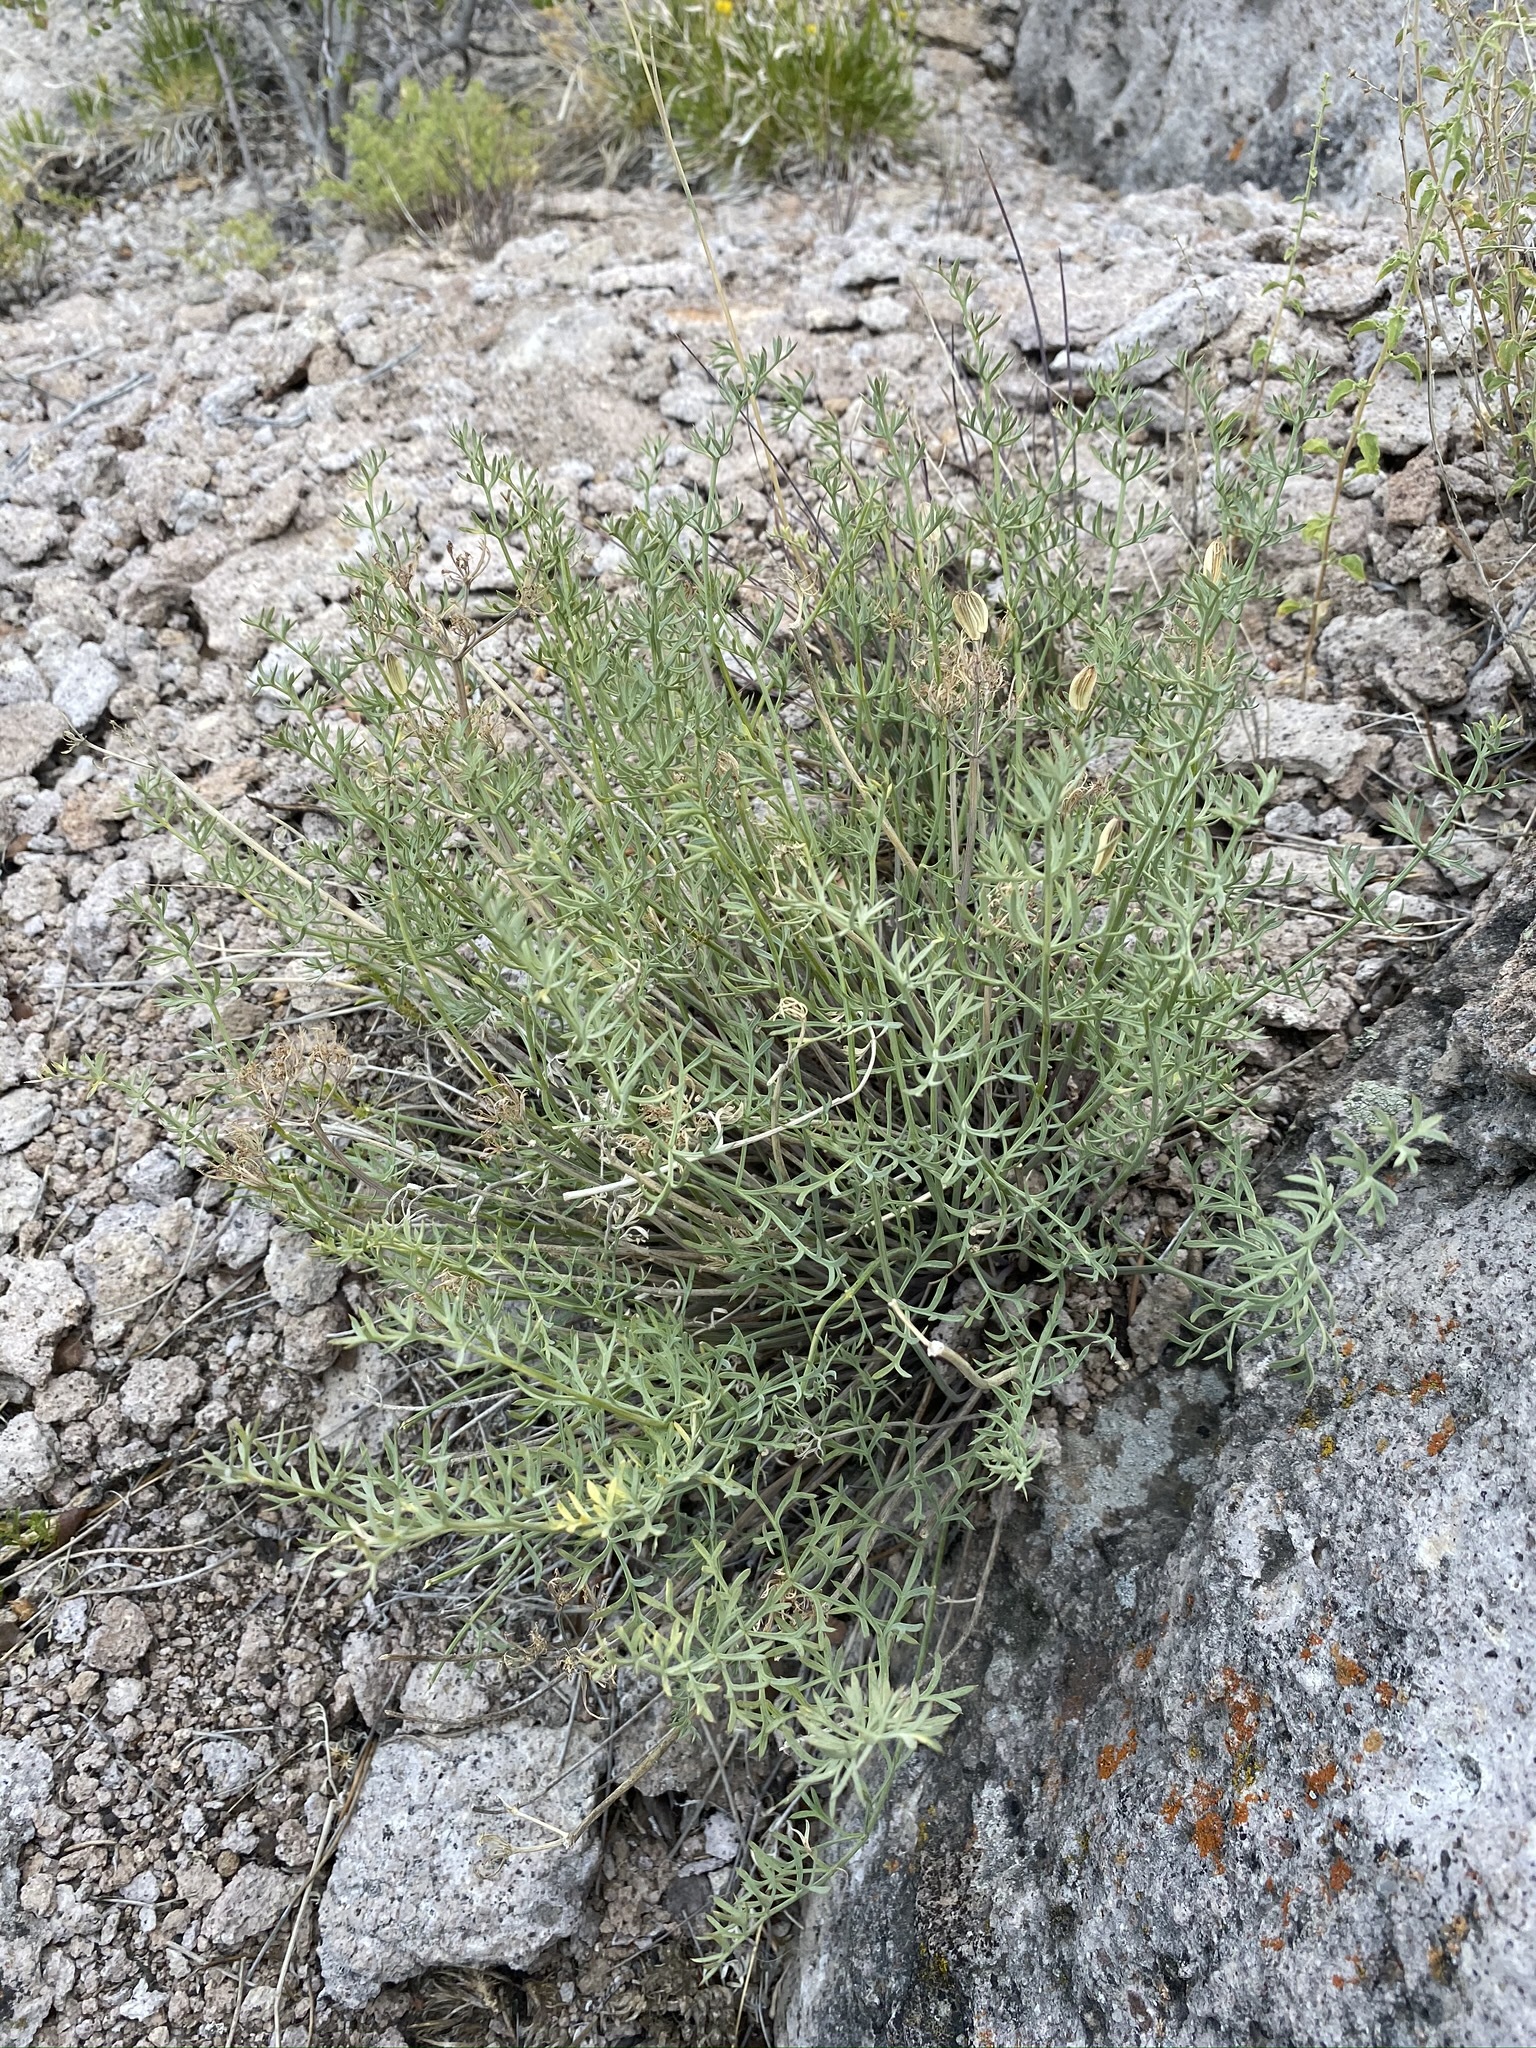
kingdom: Plantae
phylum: Tracheophyta
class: Magnoliopsida
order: Apiales
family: Apiaceae
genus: Lomatium
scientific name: Lomatium parryi
